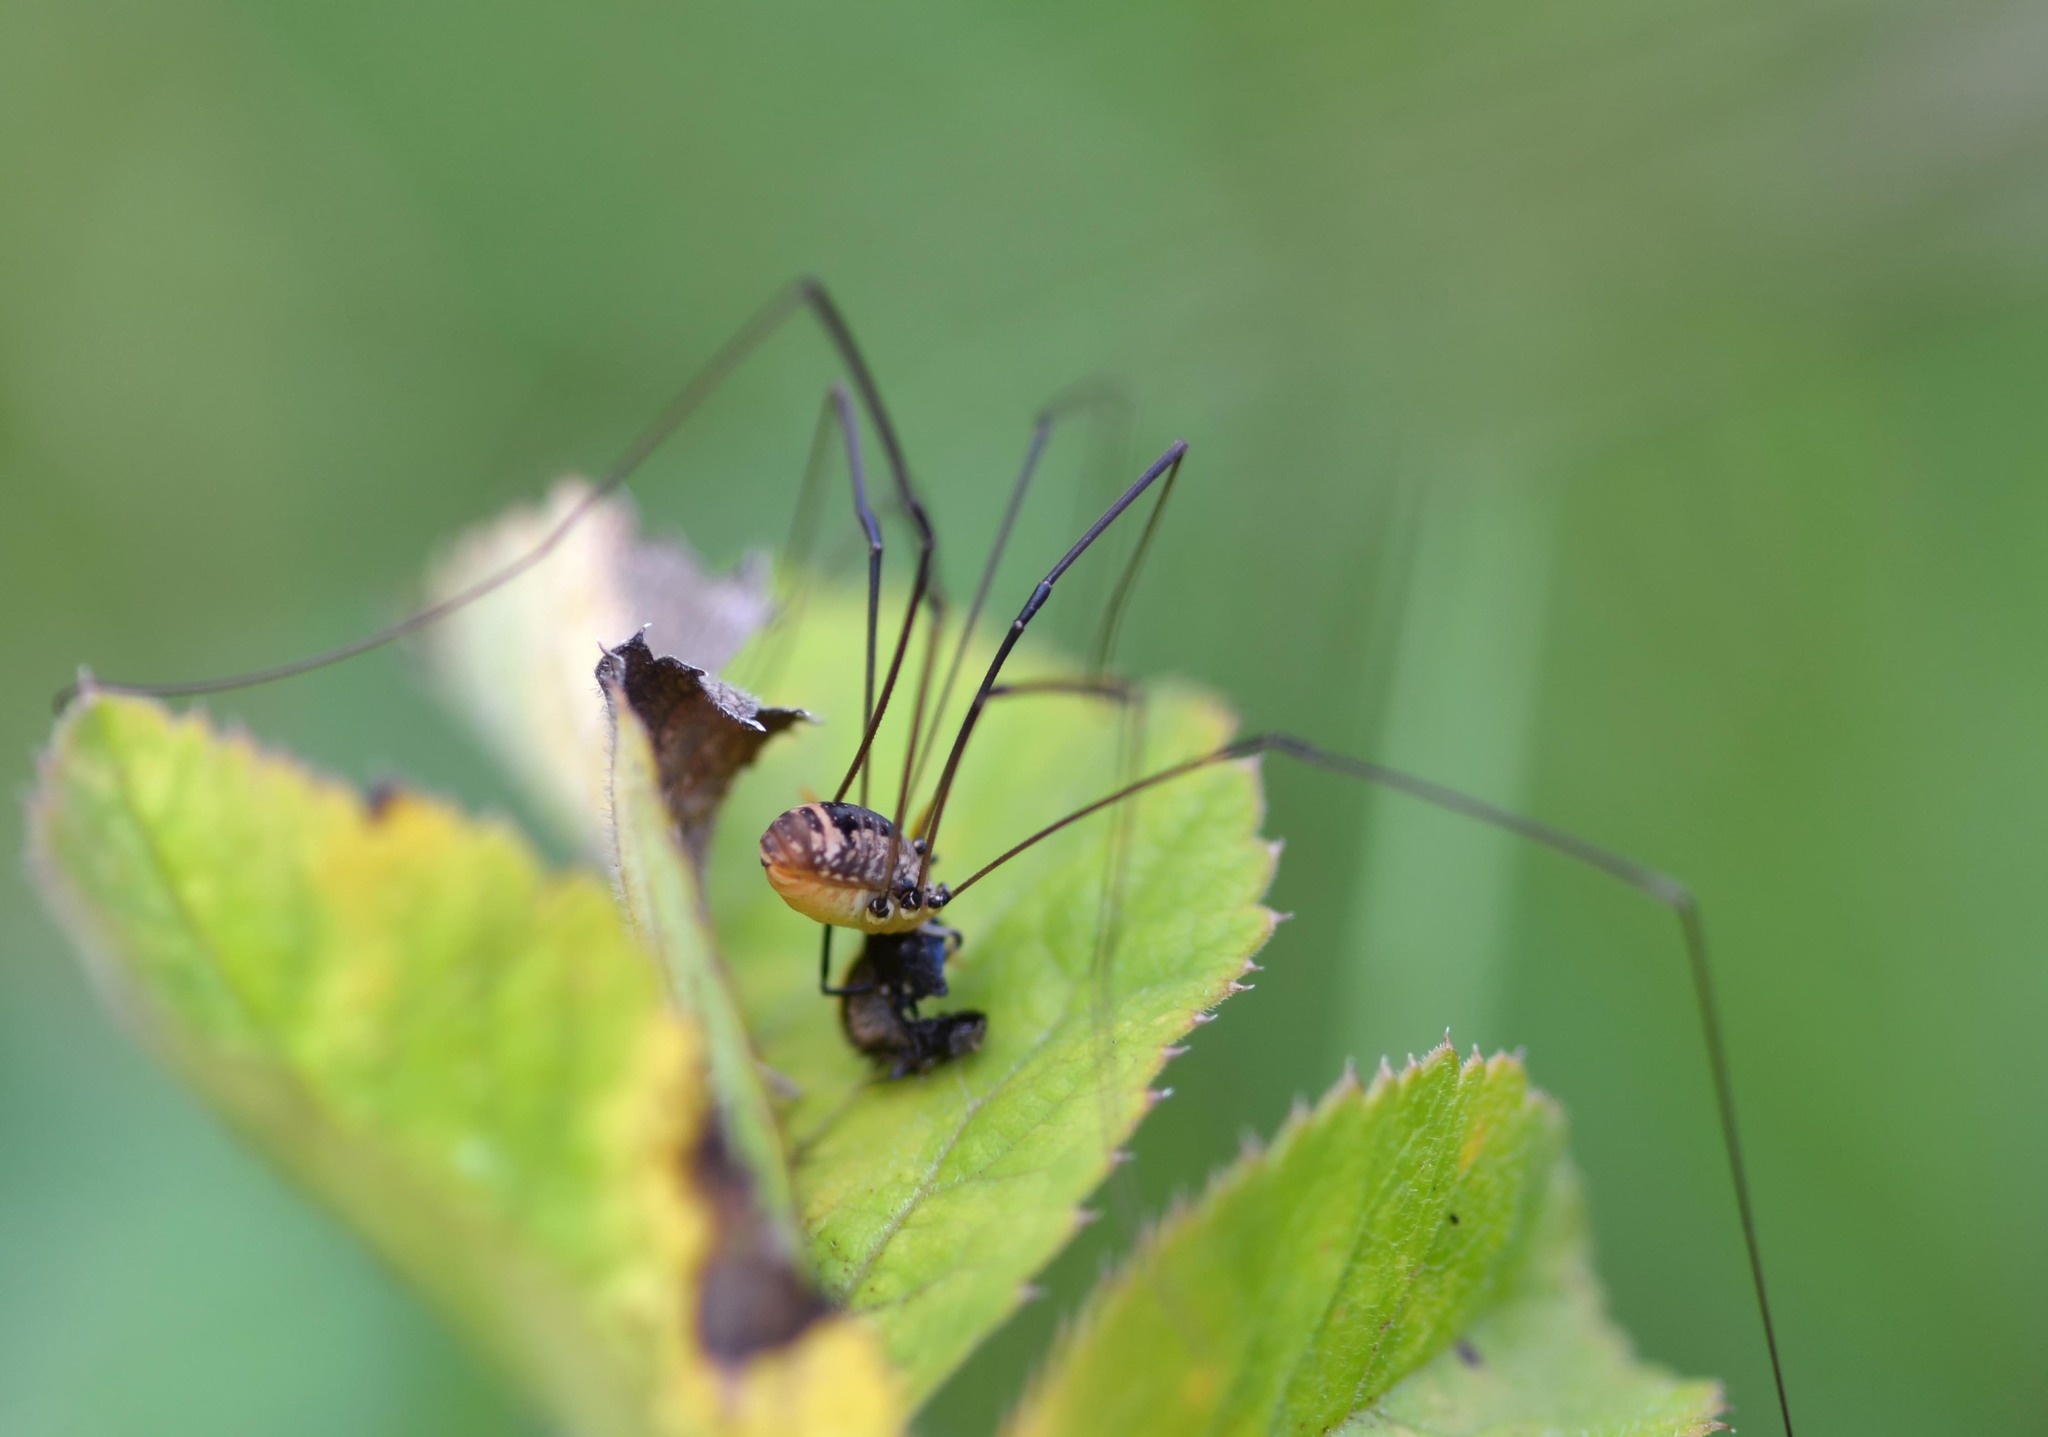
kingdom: Animalia
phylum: Arthropoda
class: Arachnida
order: Opiliones
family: Sclerosomatidae
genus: Leiobunum
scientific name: Leiobunum rotundum
